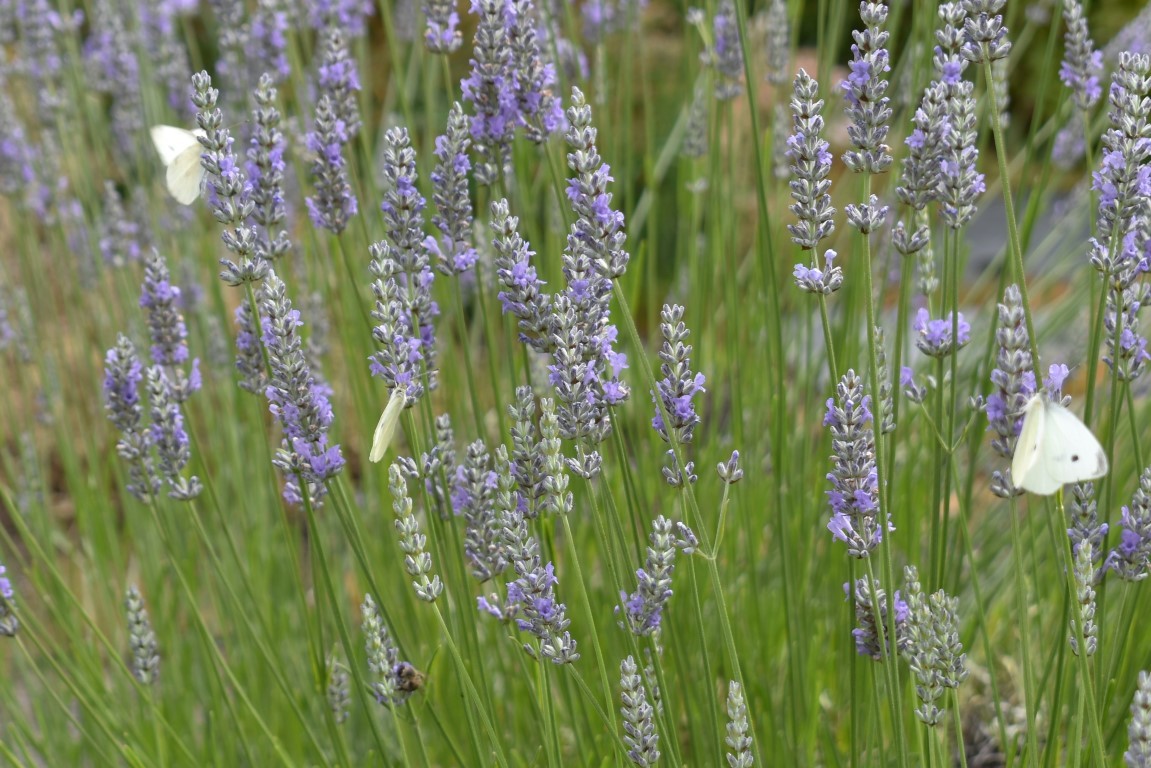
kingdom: Animalia
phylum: Arthropoda
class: Insecta
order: Lepidoptera
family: Pieridae
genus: Pieris
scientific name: Pieris rapae
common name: Small white
